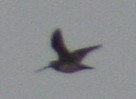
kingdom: Animalia
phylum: Chordata
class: Aves
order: Charadriiformes
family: Scolopacidae
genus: Gallinago
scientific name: Gallinago delicata
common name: Wilson's snipe
